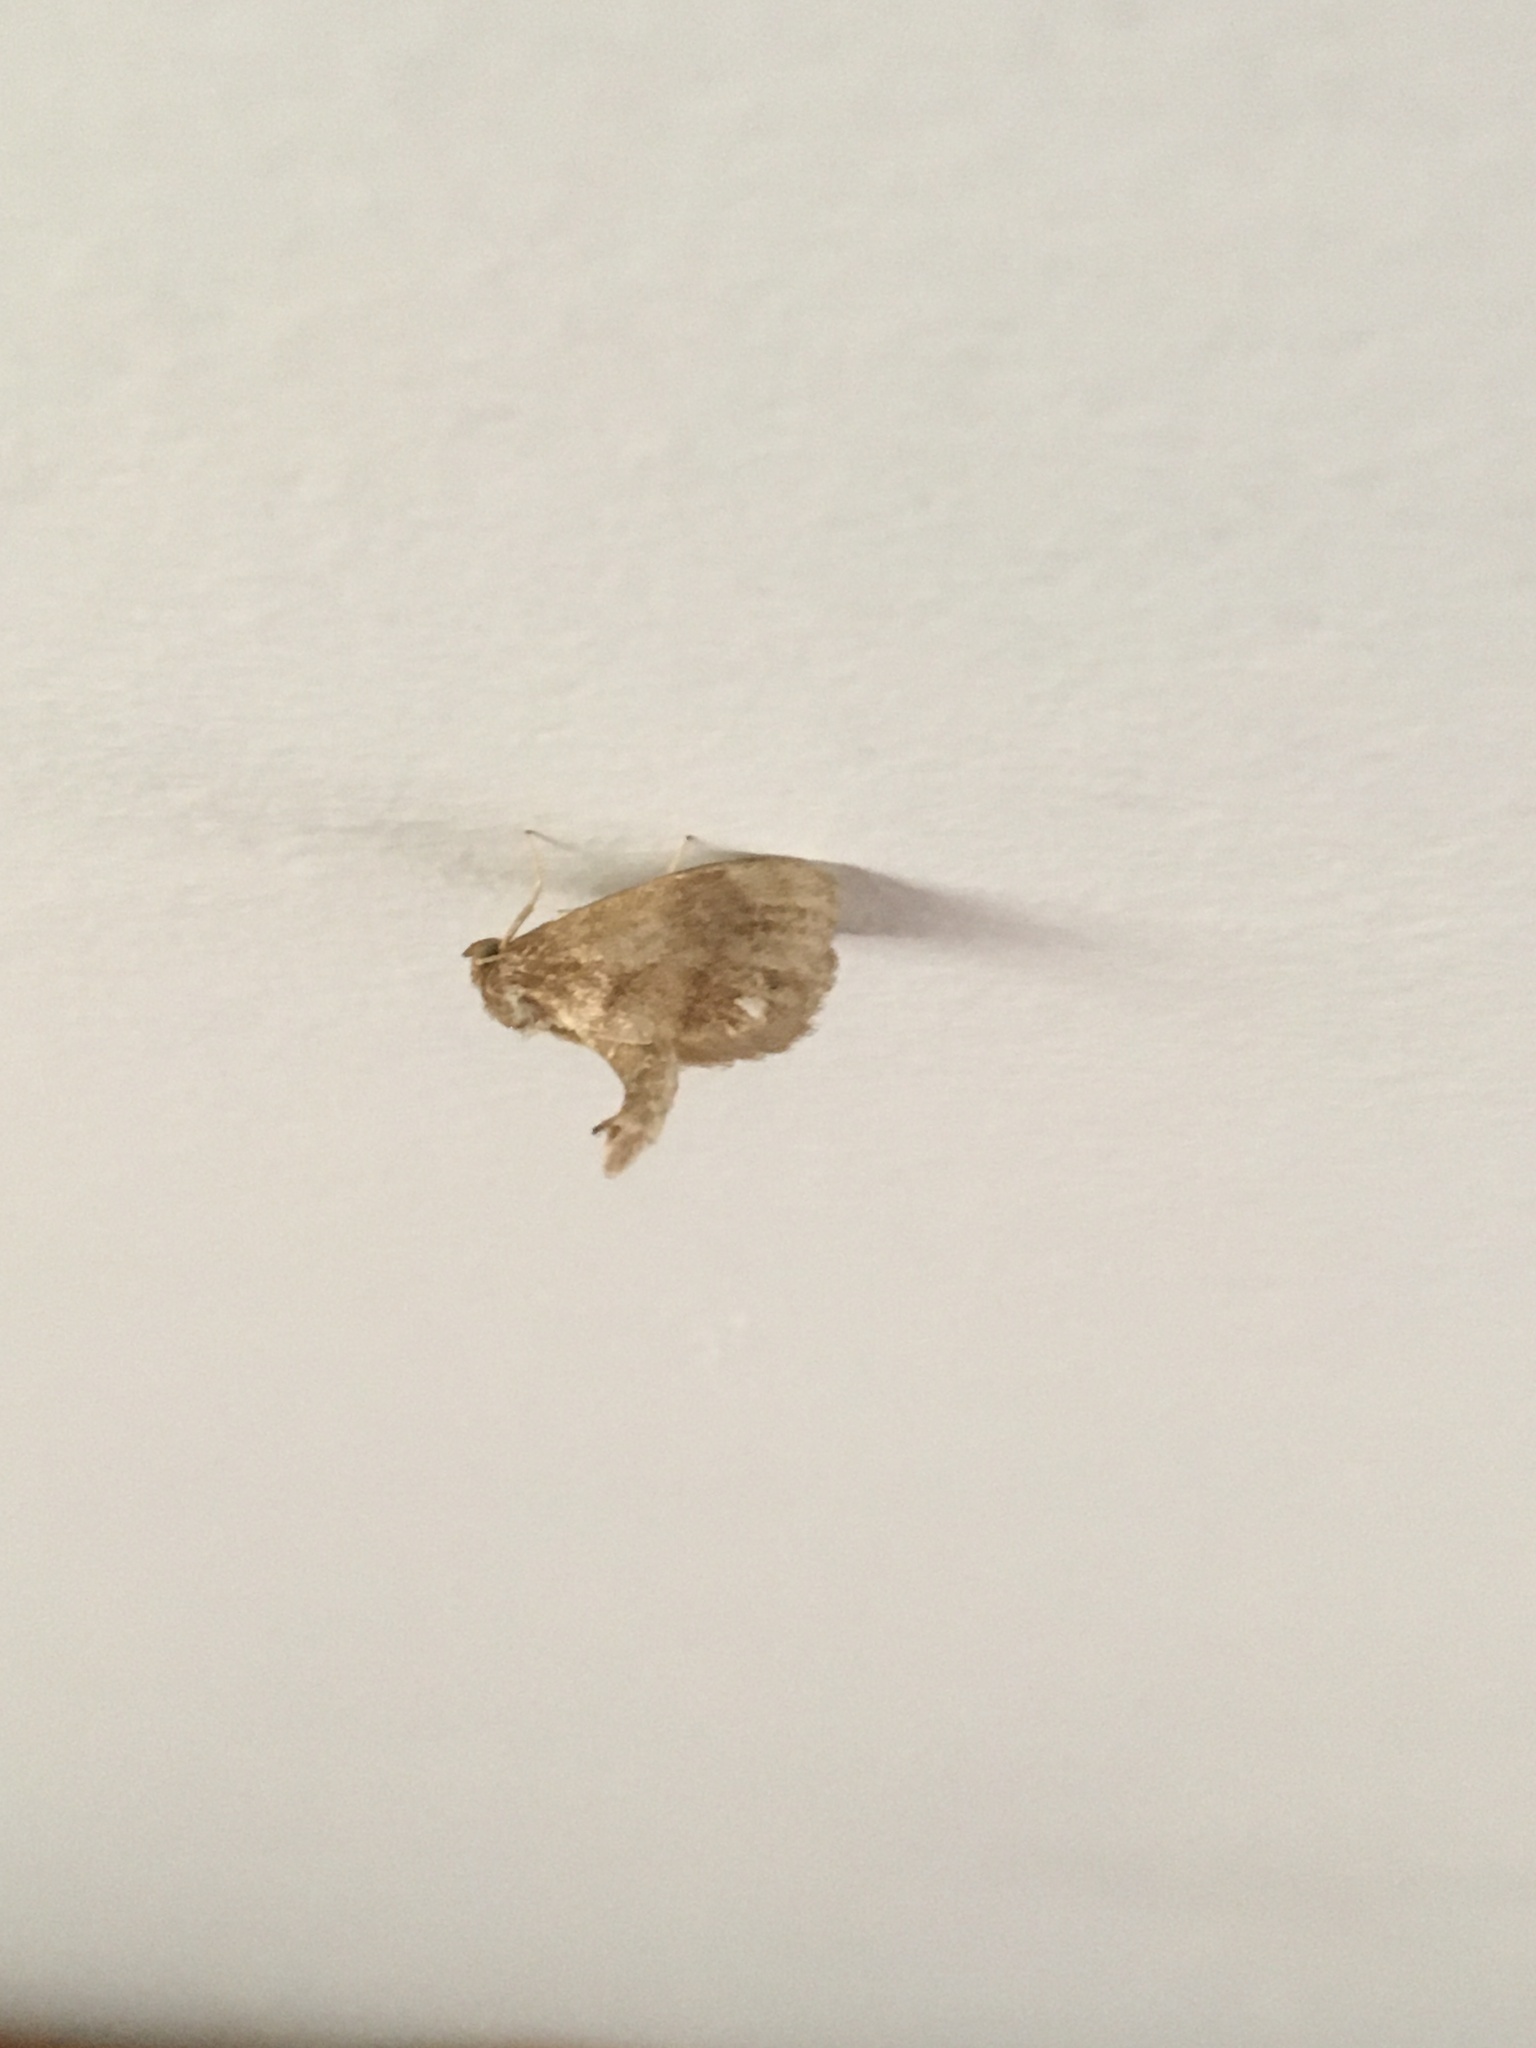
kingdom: Animalia
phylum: Arthropoda
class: Insecta
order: Lepidoptera
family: Limacodidae
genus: Packardia
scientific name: Packardia geminata
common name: Jeweled tailed slug moth
